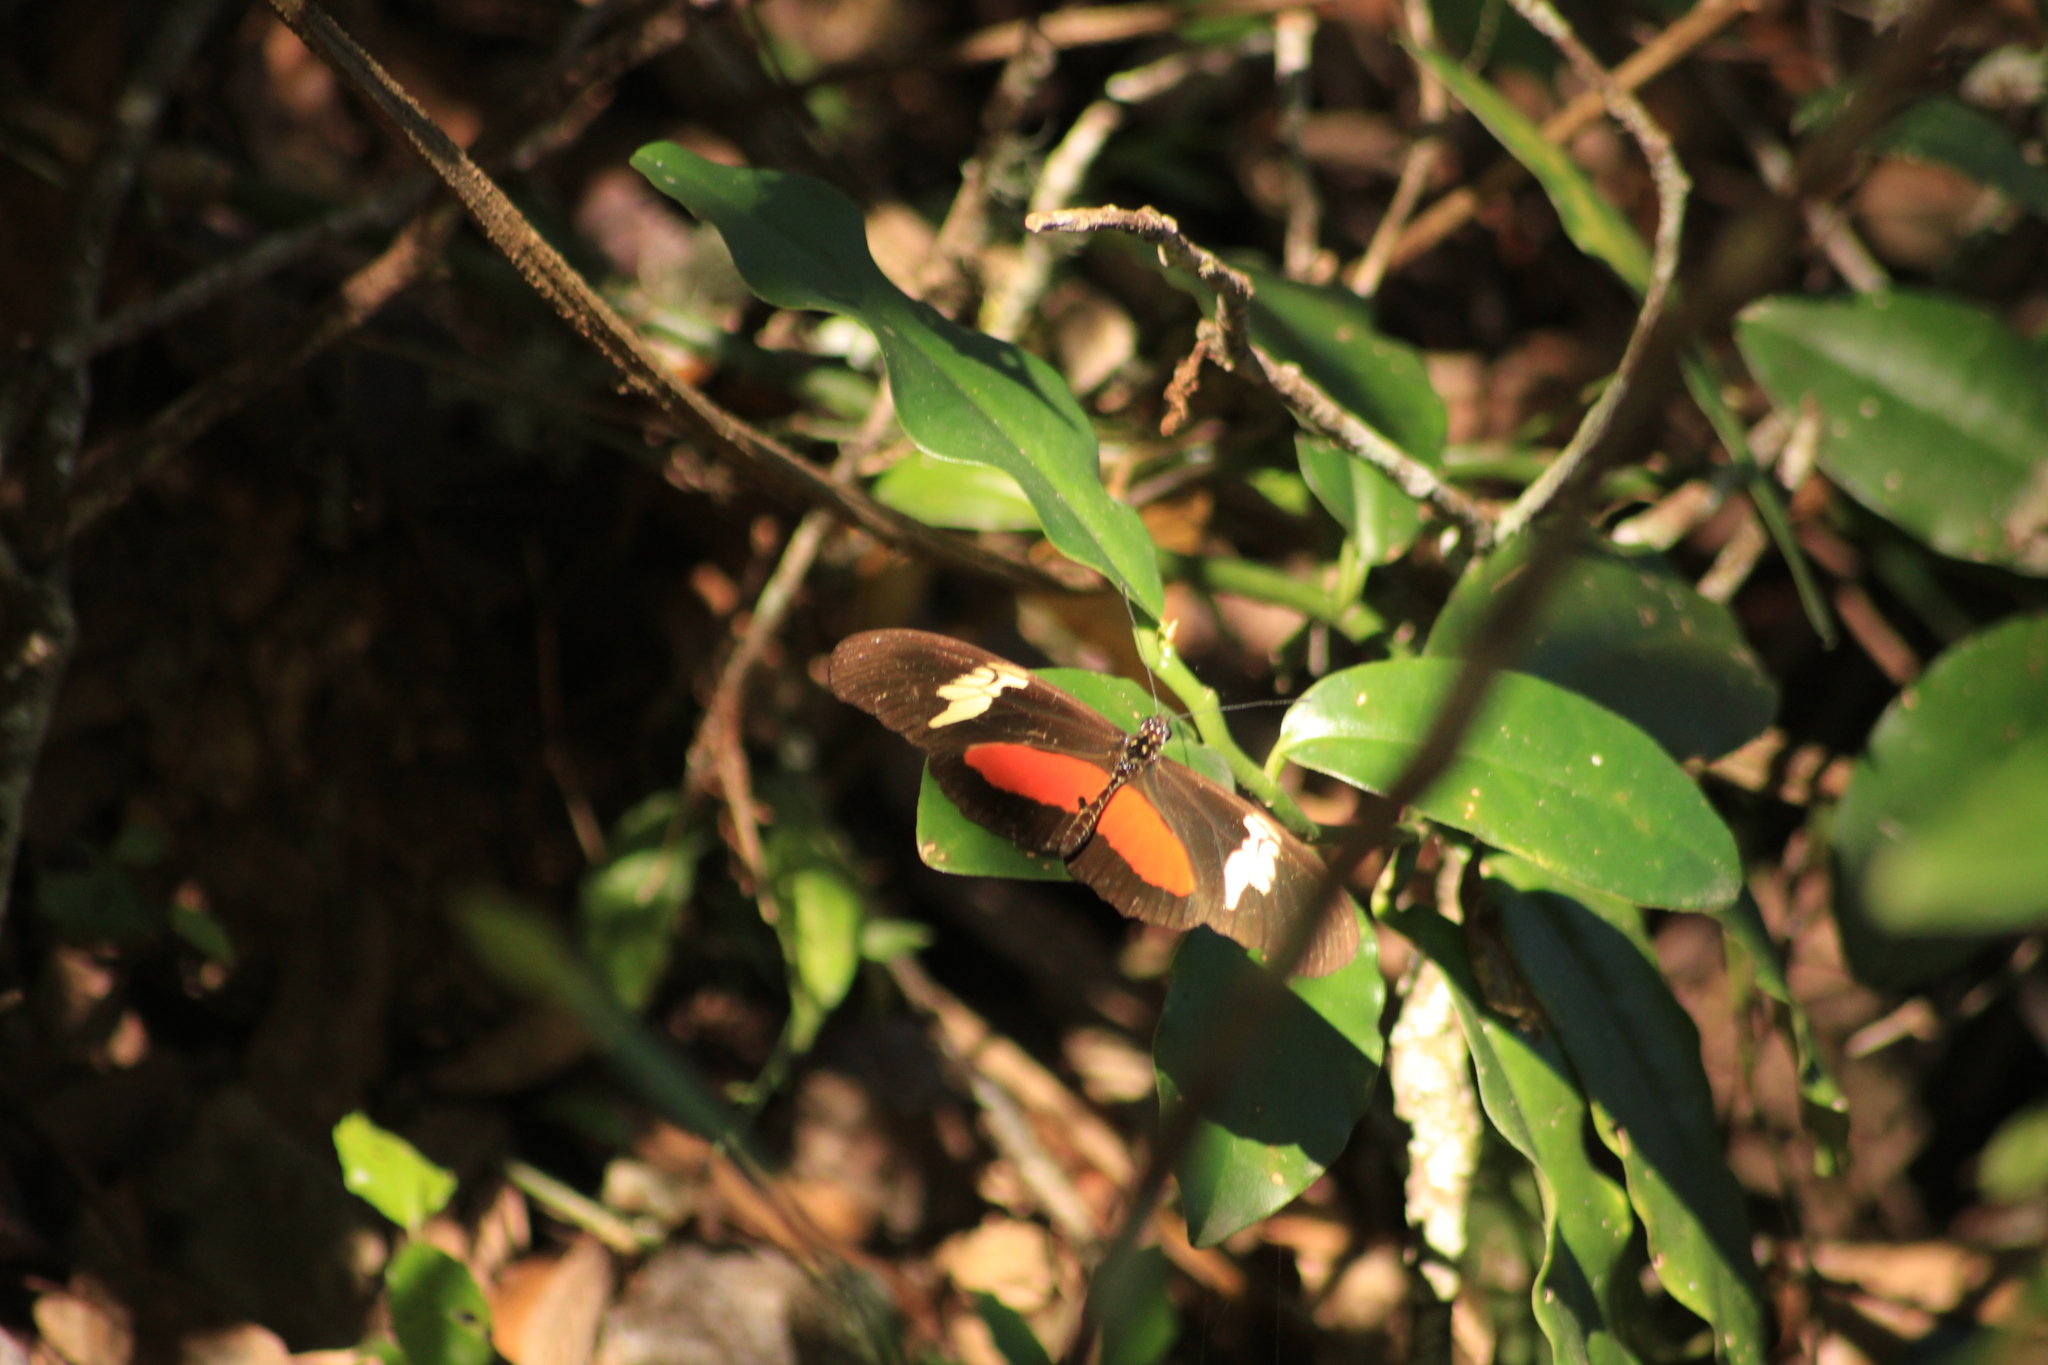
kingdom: Animalia
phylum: Arthropoda
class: Insecta
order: Lepidoptera
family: Nymphalidae
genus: Heliconius
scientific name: Heliconius hortense
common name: Mexican longwing
